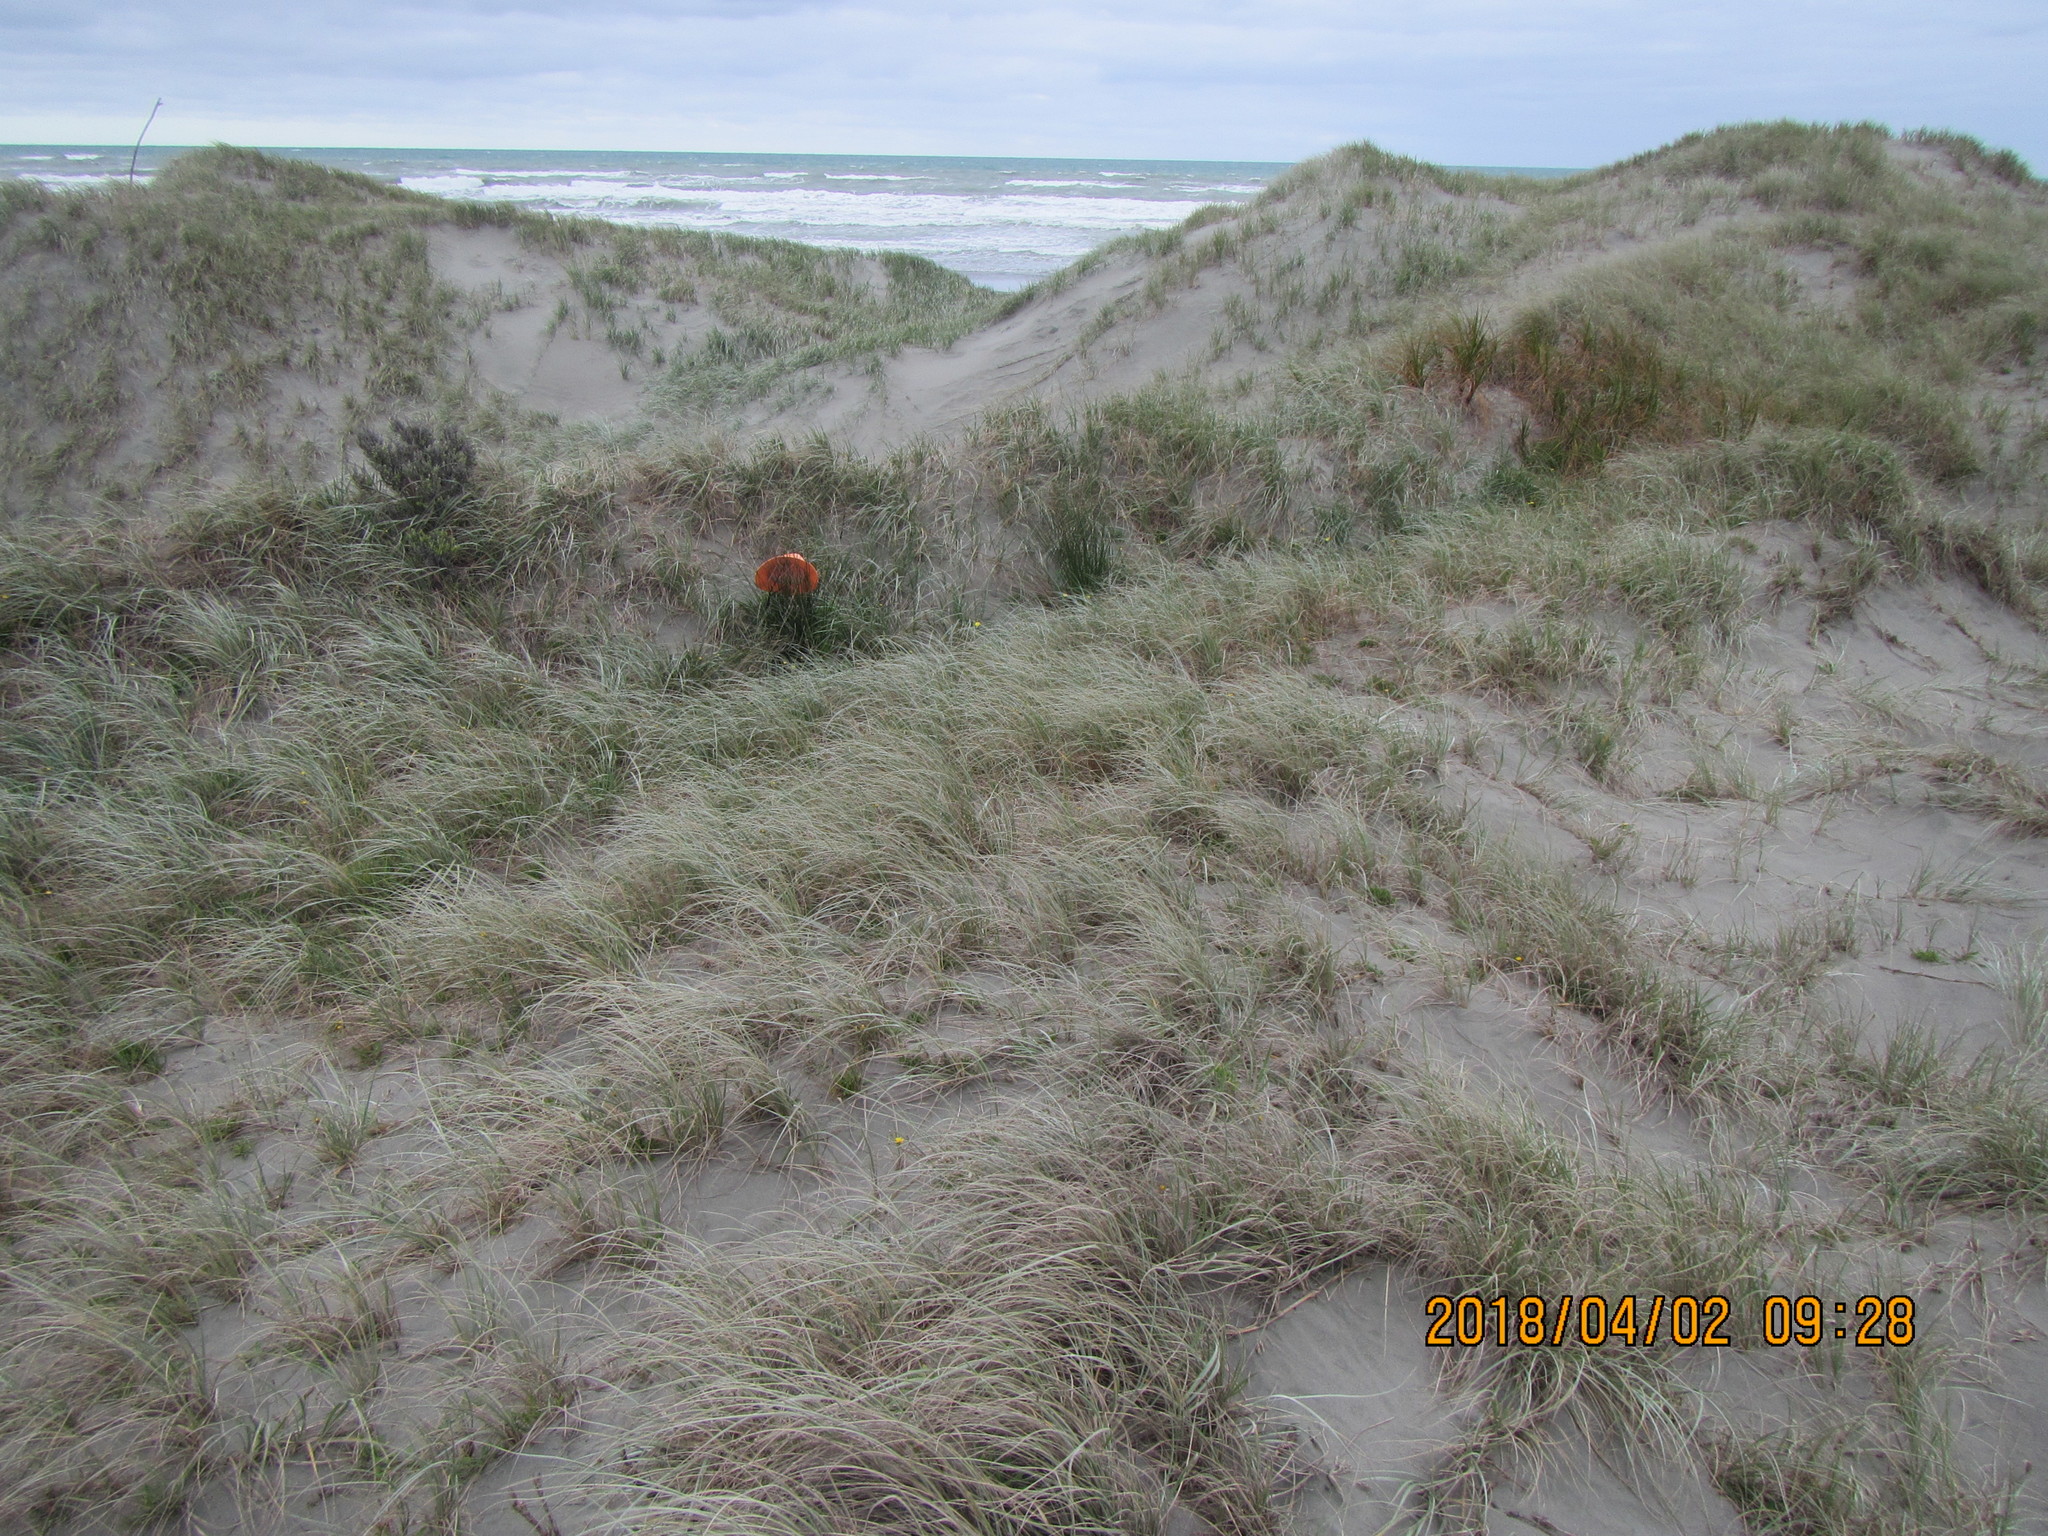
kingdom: Plantae
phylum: Tracheophyta
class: Liliopsida
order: Poales
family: Cyperaceae
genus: Ficinia
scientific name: Ficinia nodosa
